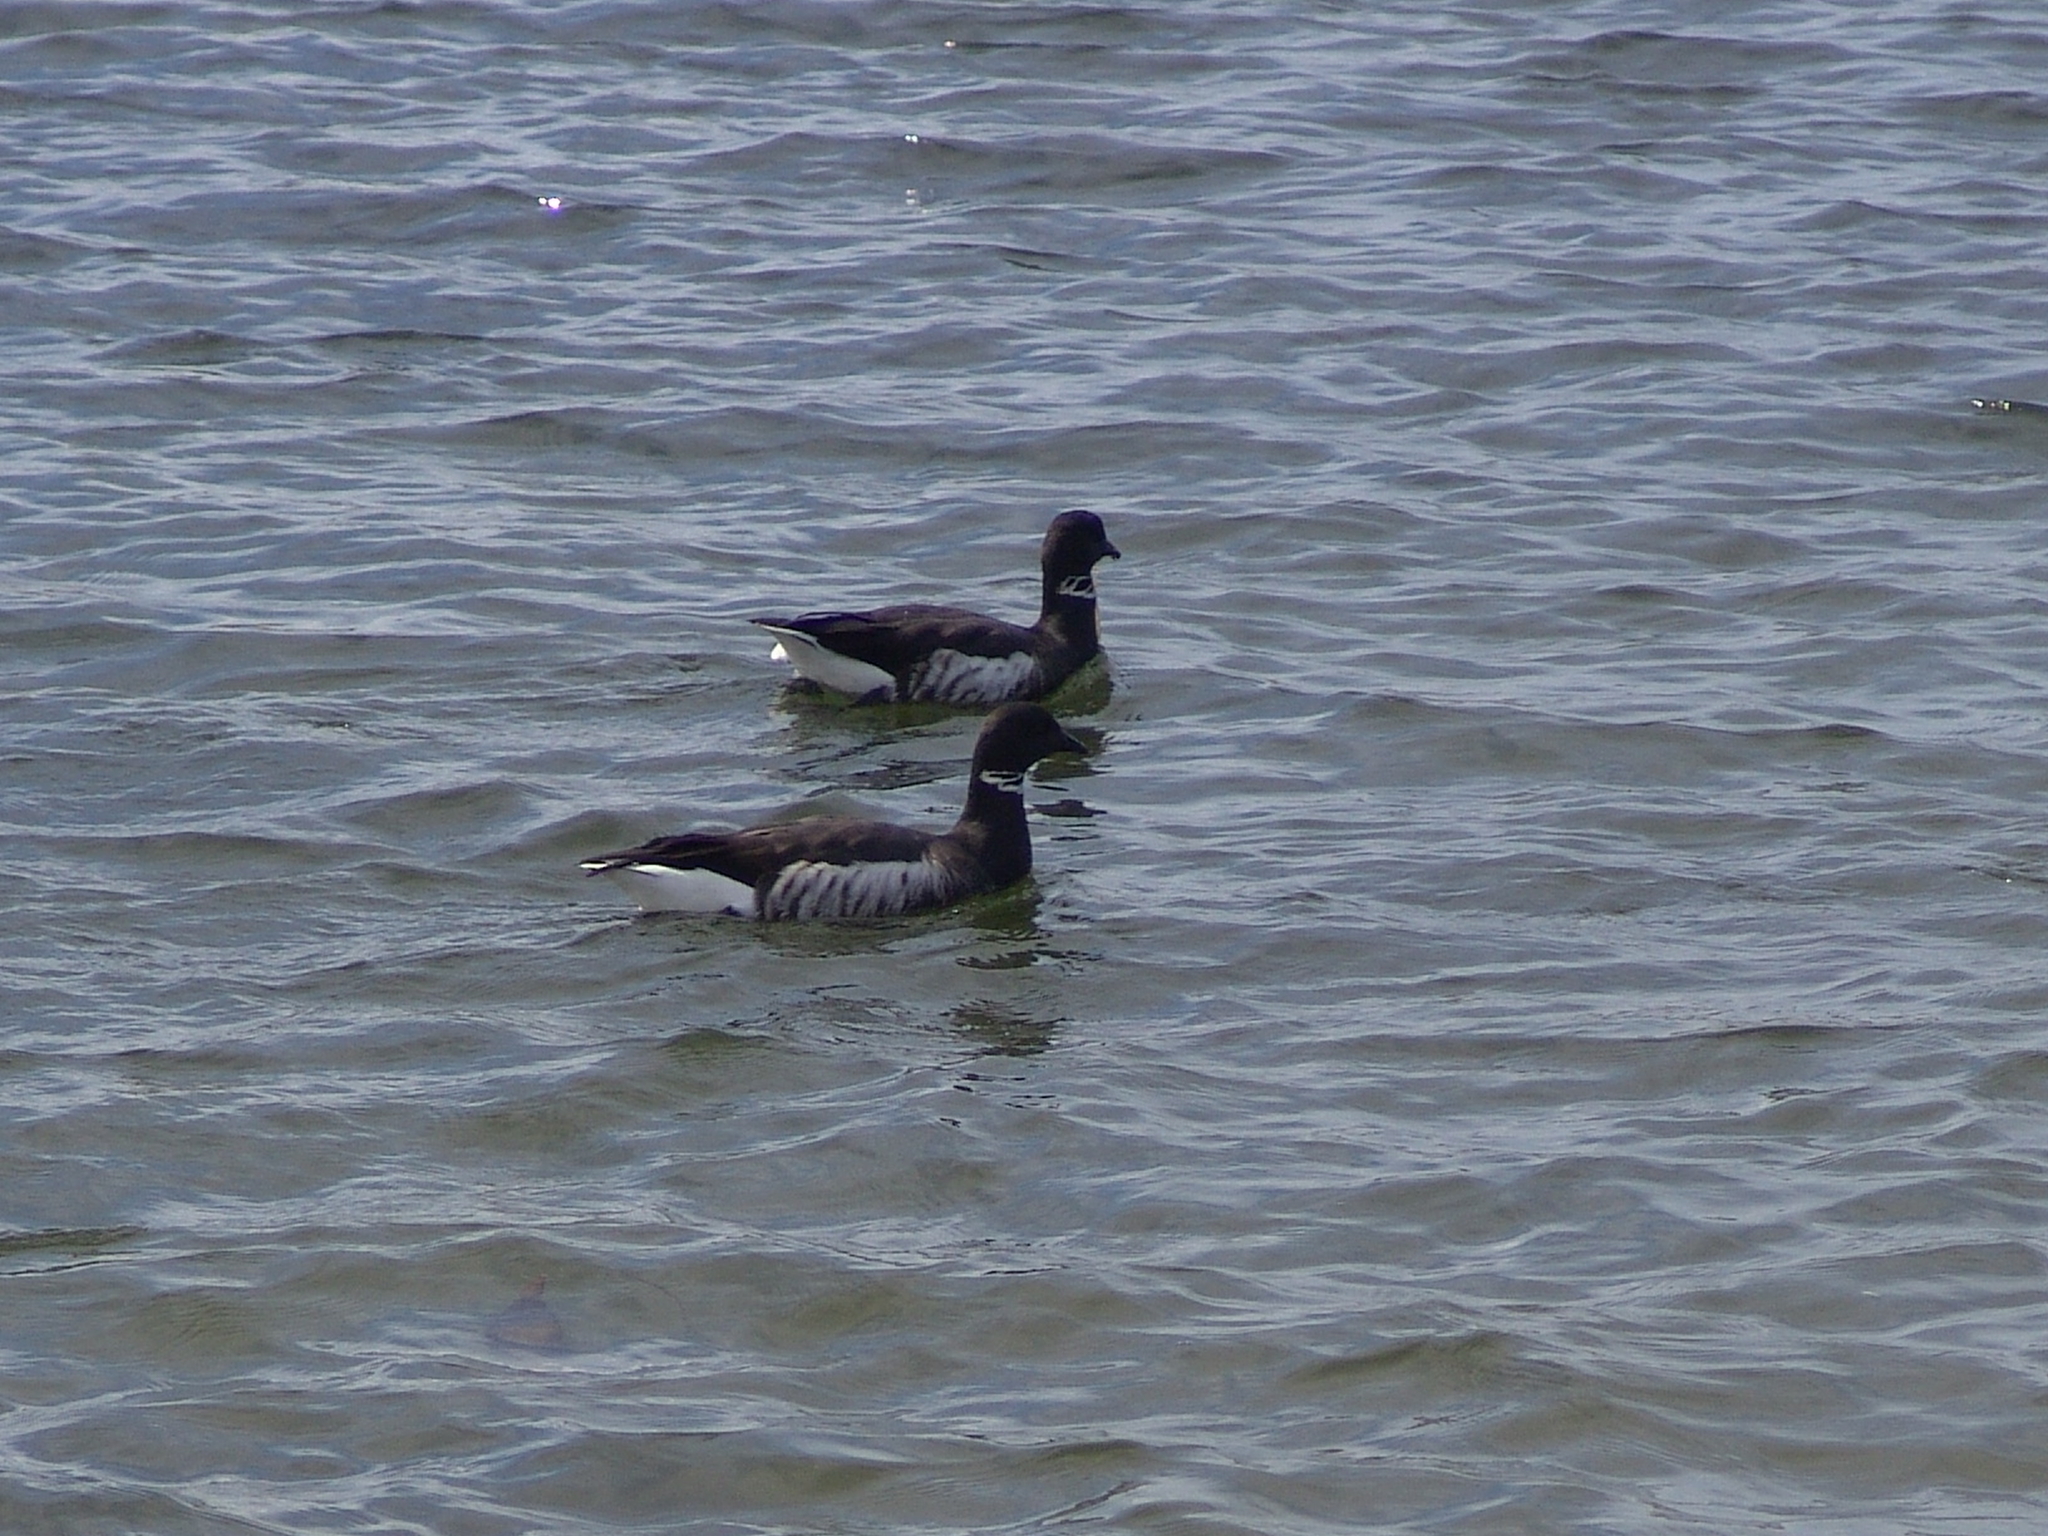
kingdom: Animalia
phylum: Chordata
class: Aves
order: Anseriformes
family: Anatidae
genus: Branta
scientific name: Branta bernicla
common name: Brant goose
